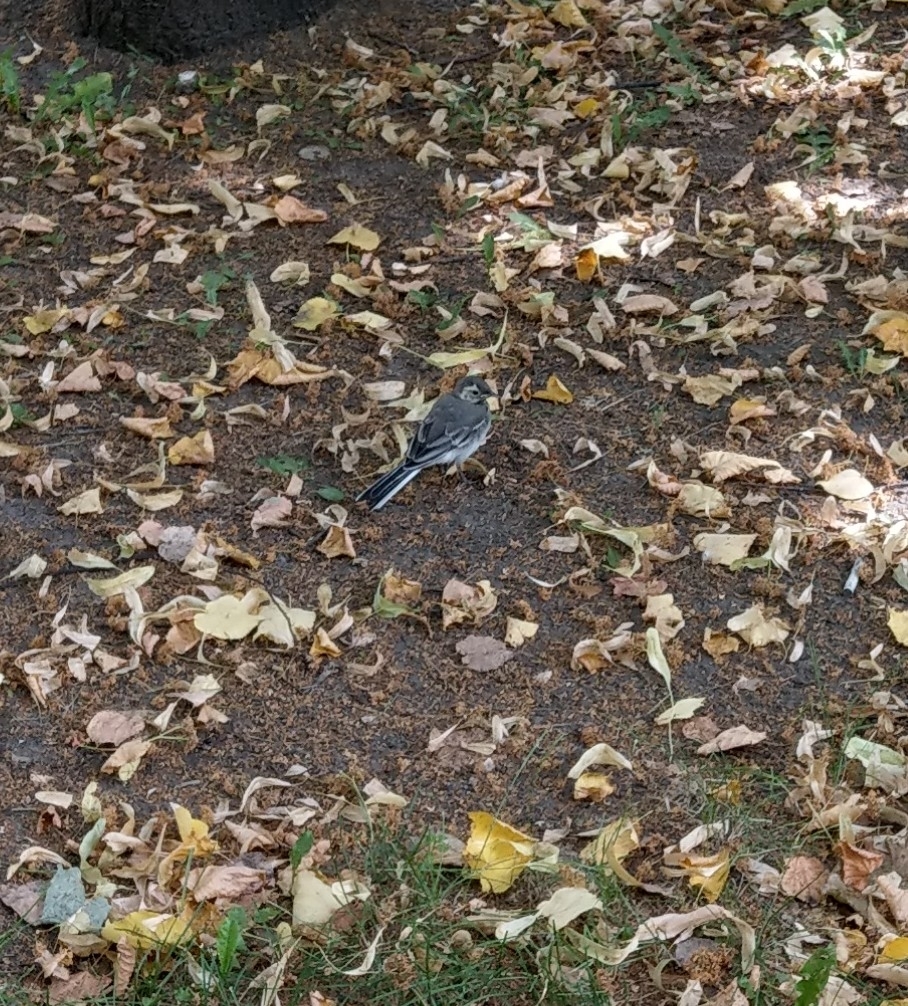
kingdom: Animalia
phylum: Chordata
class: Aves
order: Passeriformes
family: Motacillidae
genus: Motacilla
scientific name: Motacilla alba
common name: White wagtail
